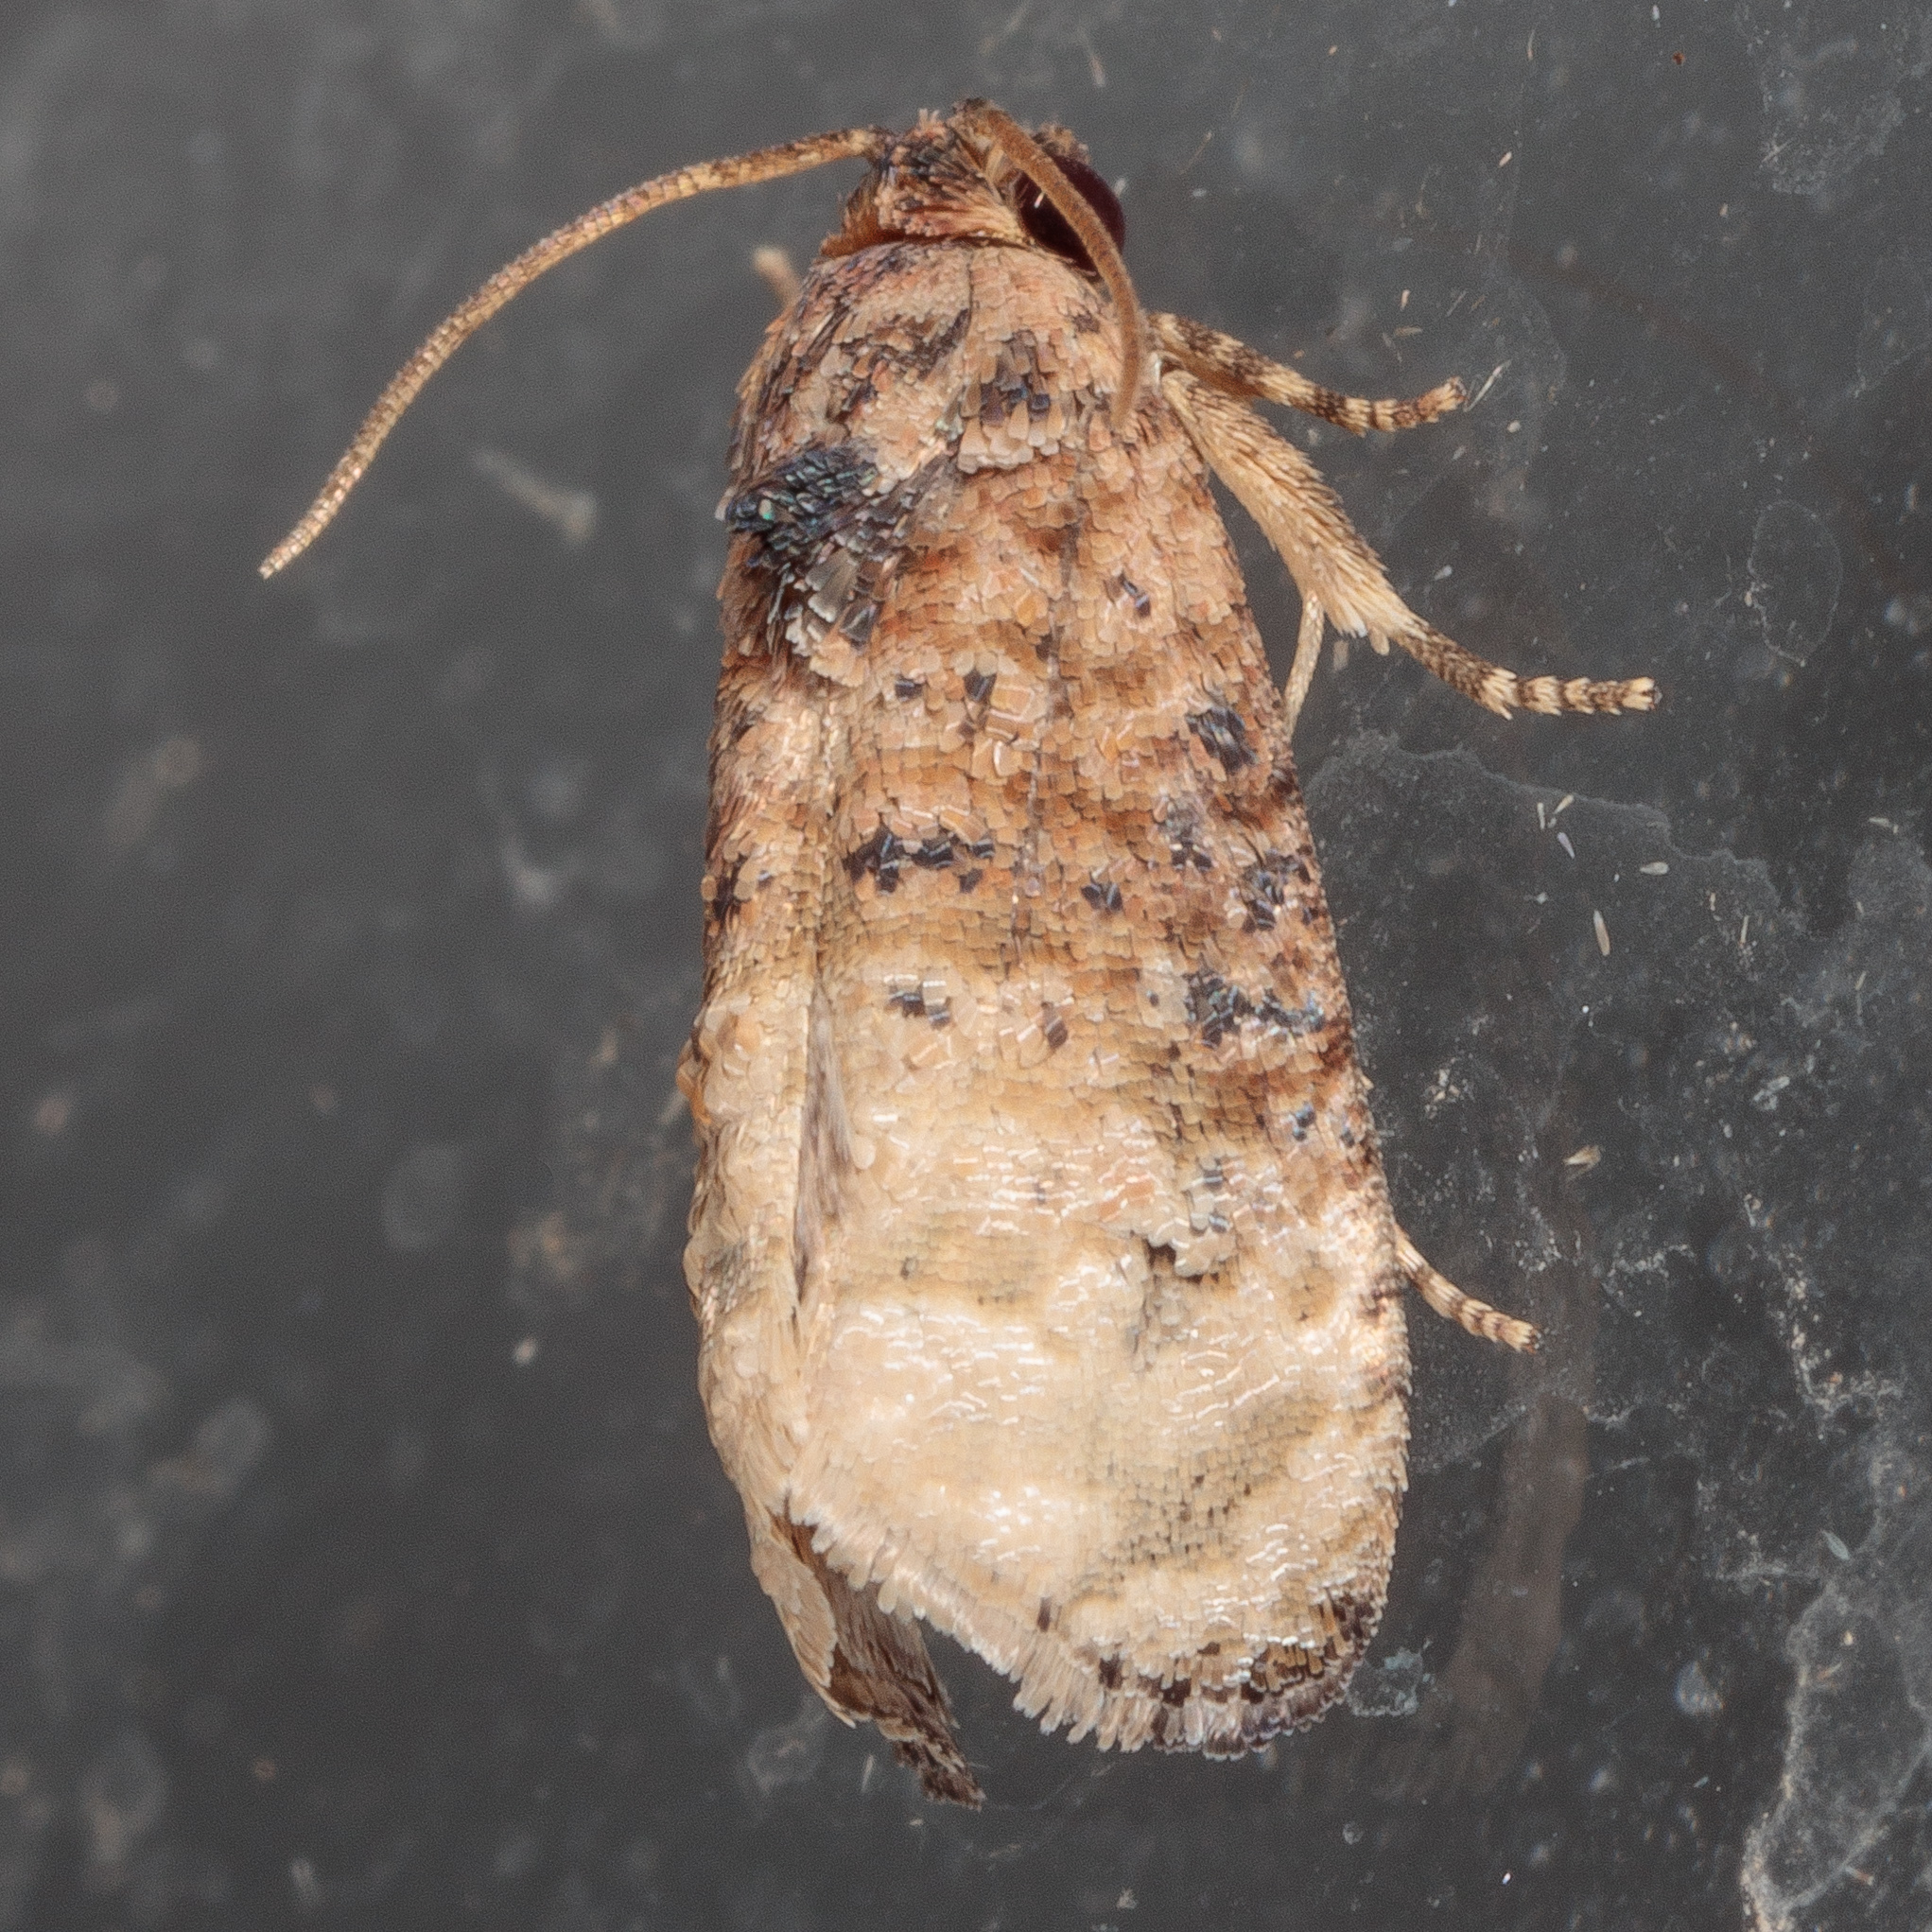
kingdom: Animalia
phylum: Arthropoda
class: Insecta
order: Lepidoptera
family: Tortricidae
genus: Ecdytolopha
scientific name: Ecdytolopha mana
